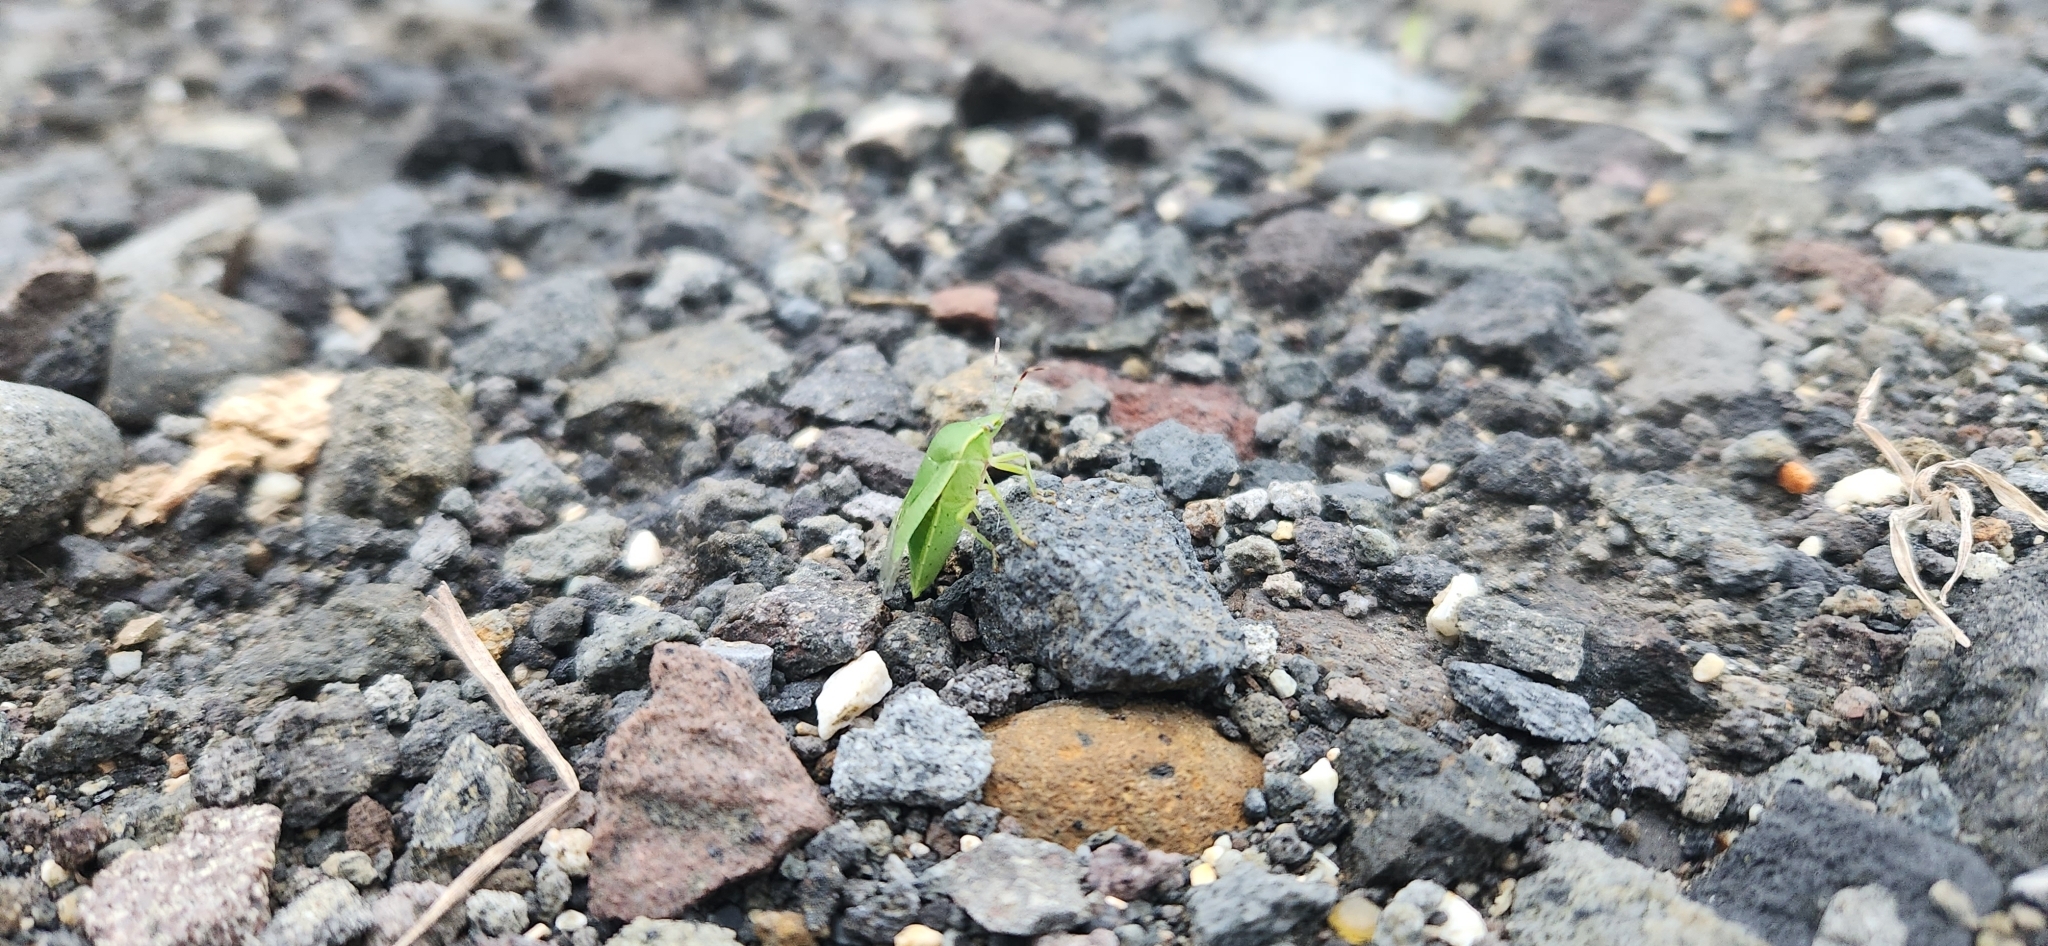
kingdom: Animalia
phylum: Arthropoda
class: Insecta
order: Hemiptera
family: Pentatomidae
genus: Nezara
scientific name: Nezara viridula
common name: Southern green stink bug
